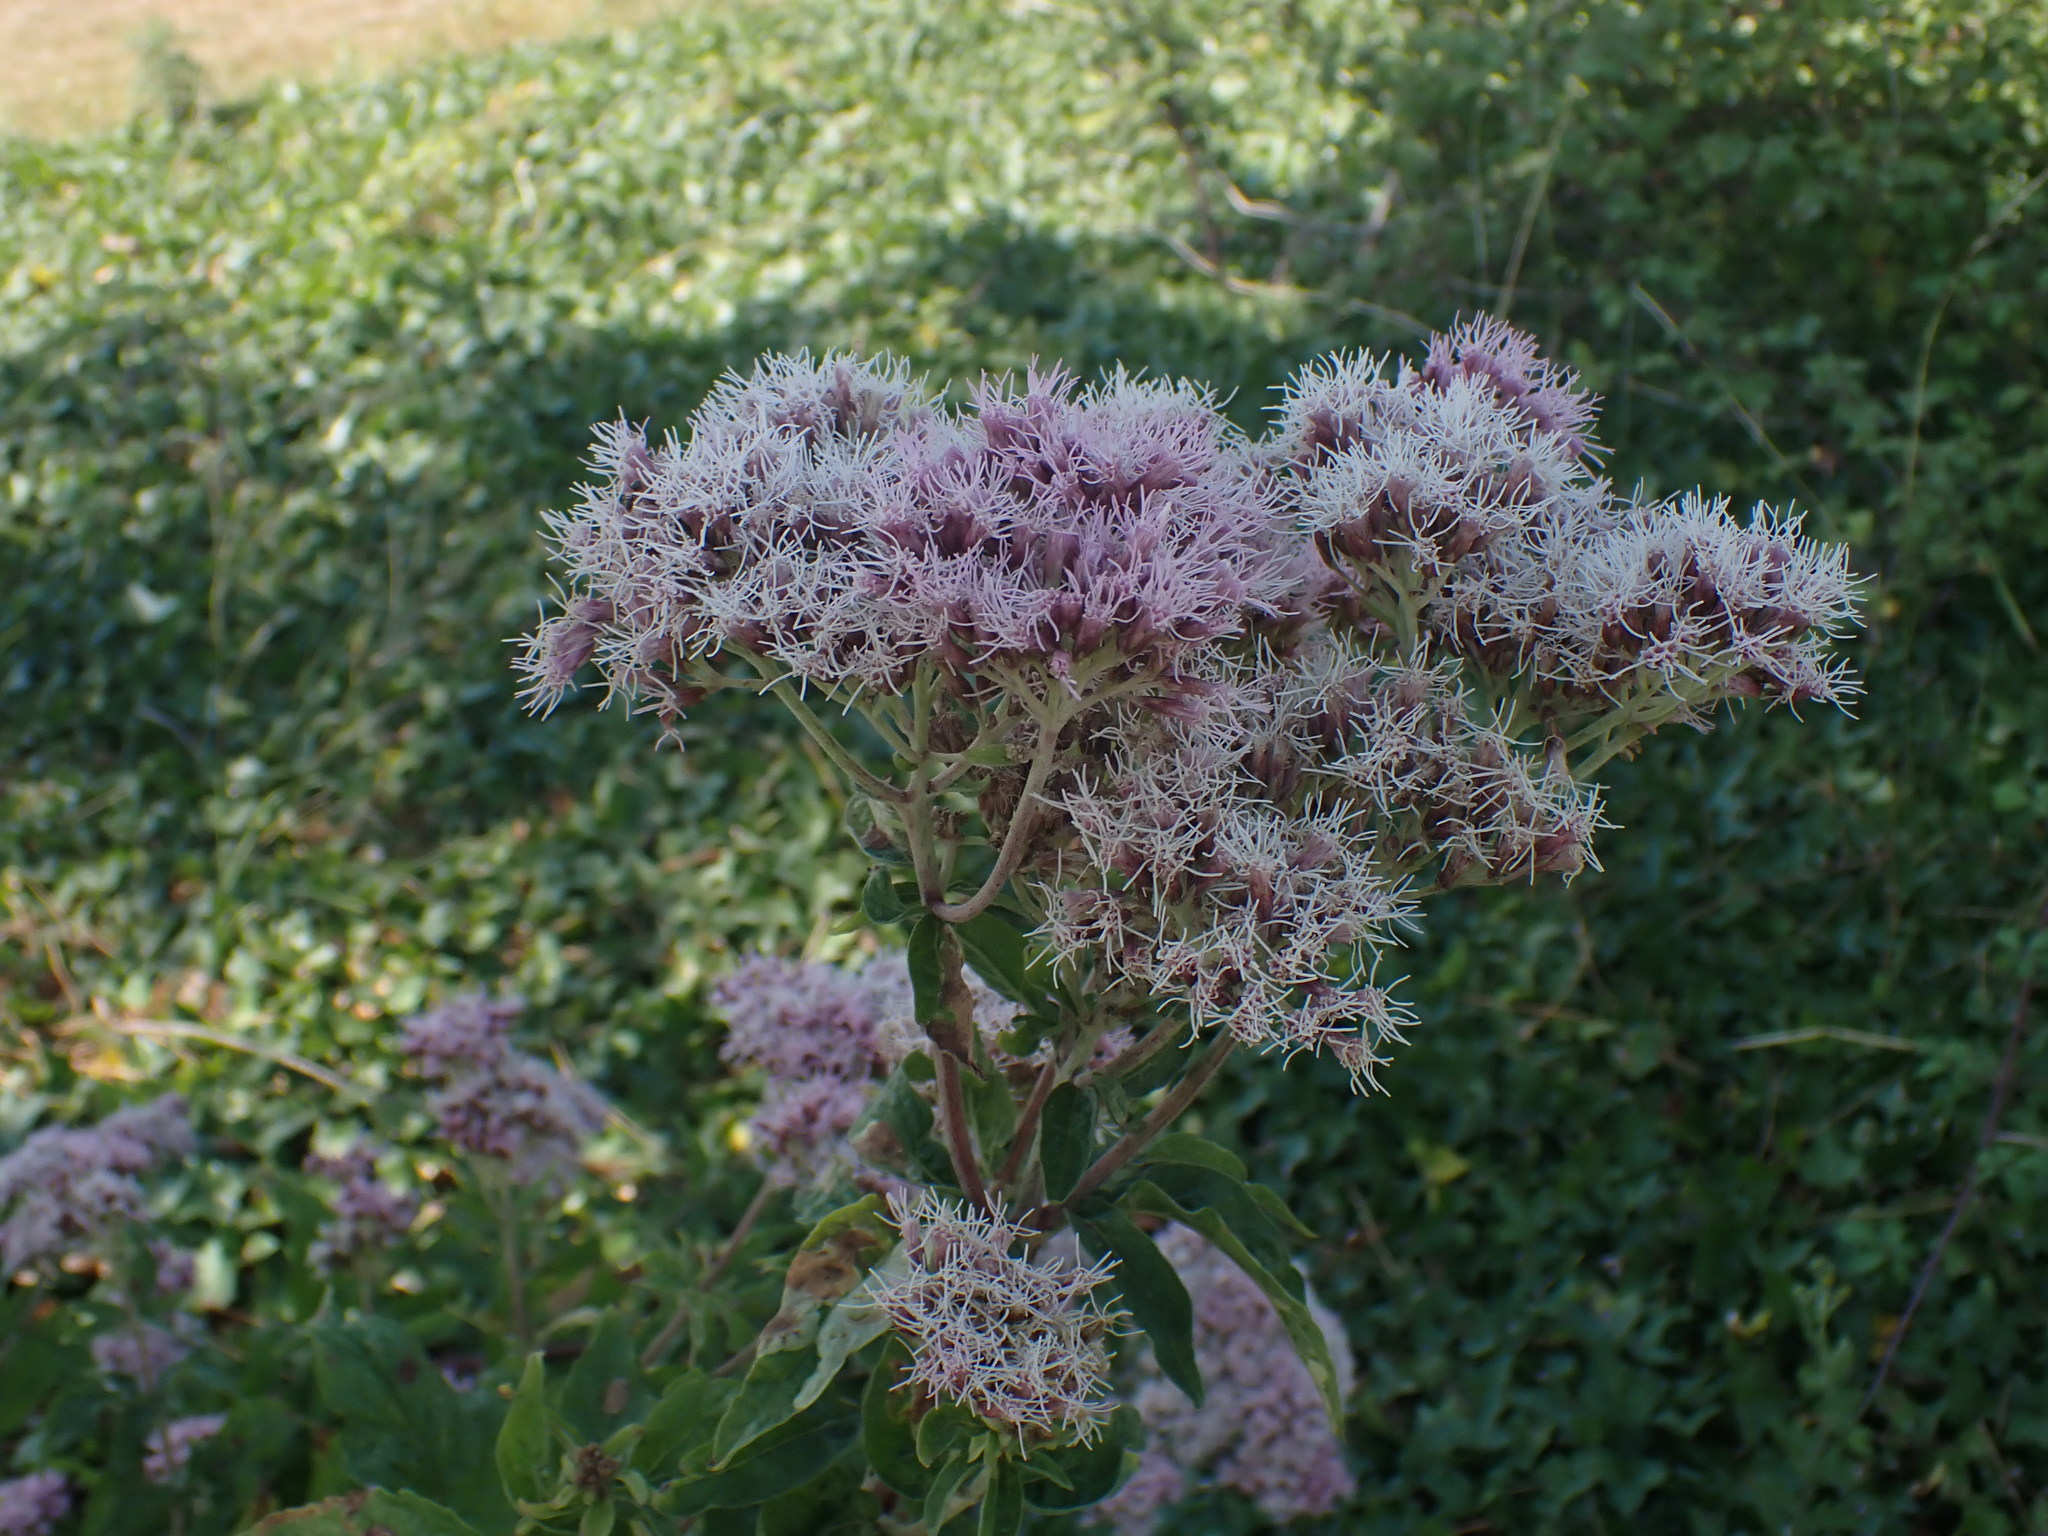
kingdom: Plantae
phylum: Tracheophyta
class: Magnoliopsida
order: Asterales
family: Asteraceae
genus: Eupatorium
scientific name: Eupatorium cannabinum
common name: Hemp-agrimony
